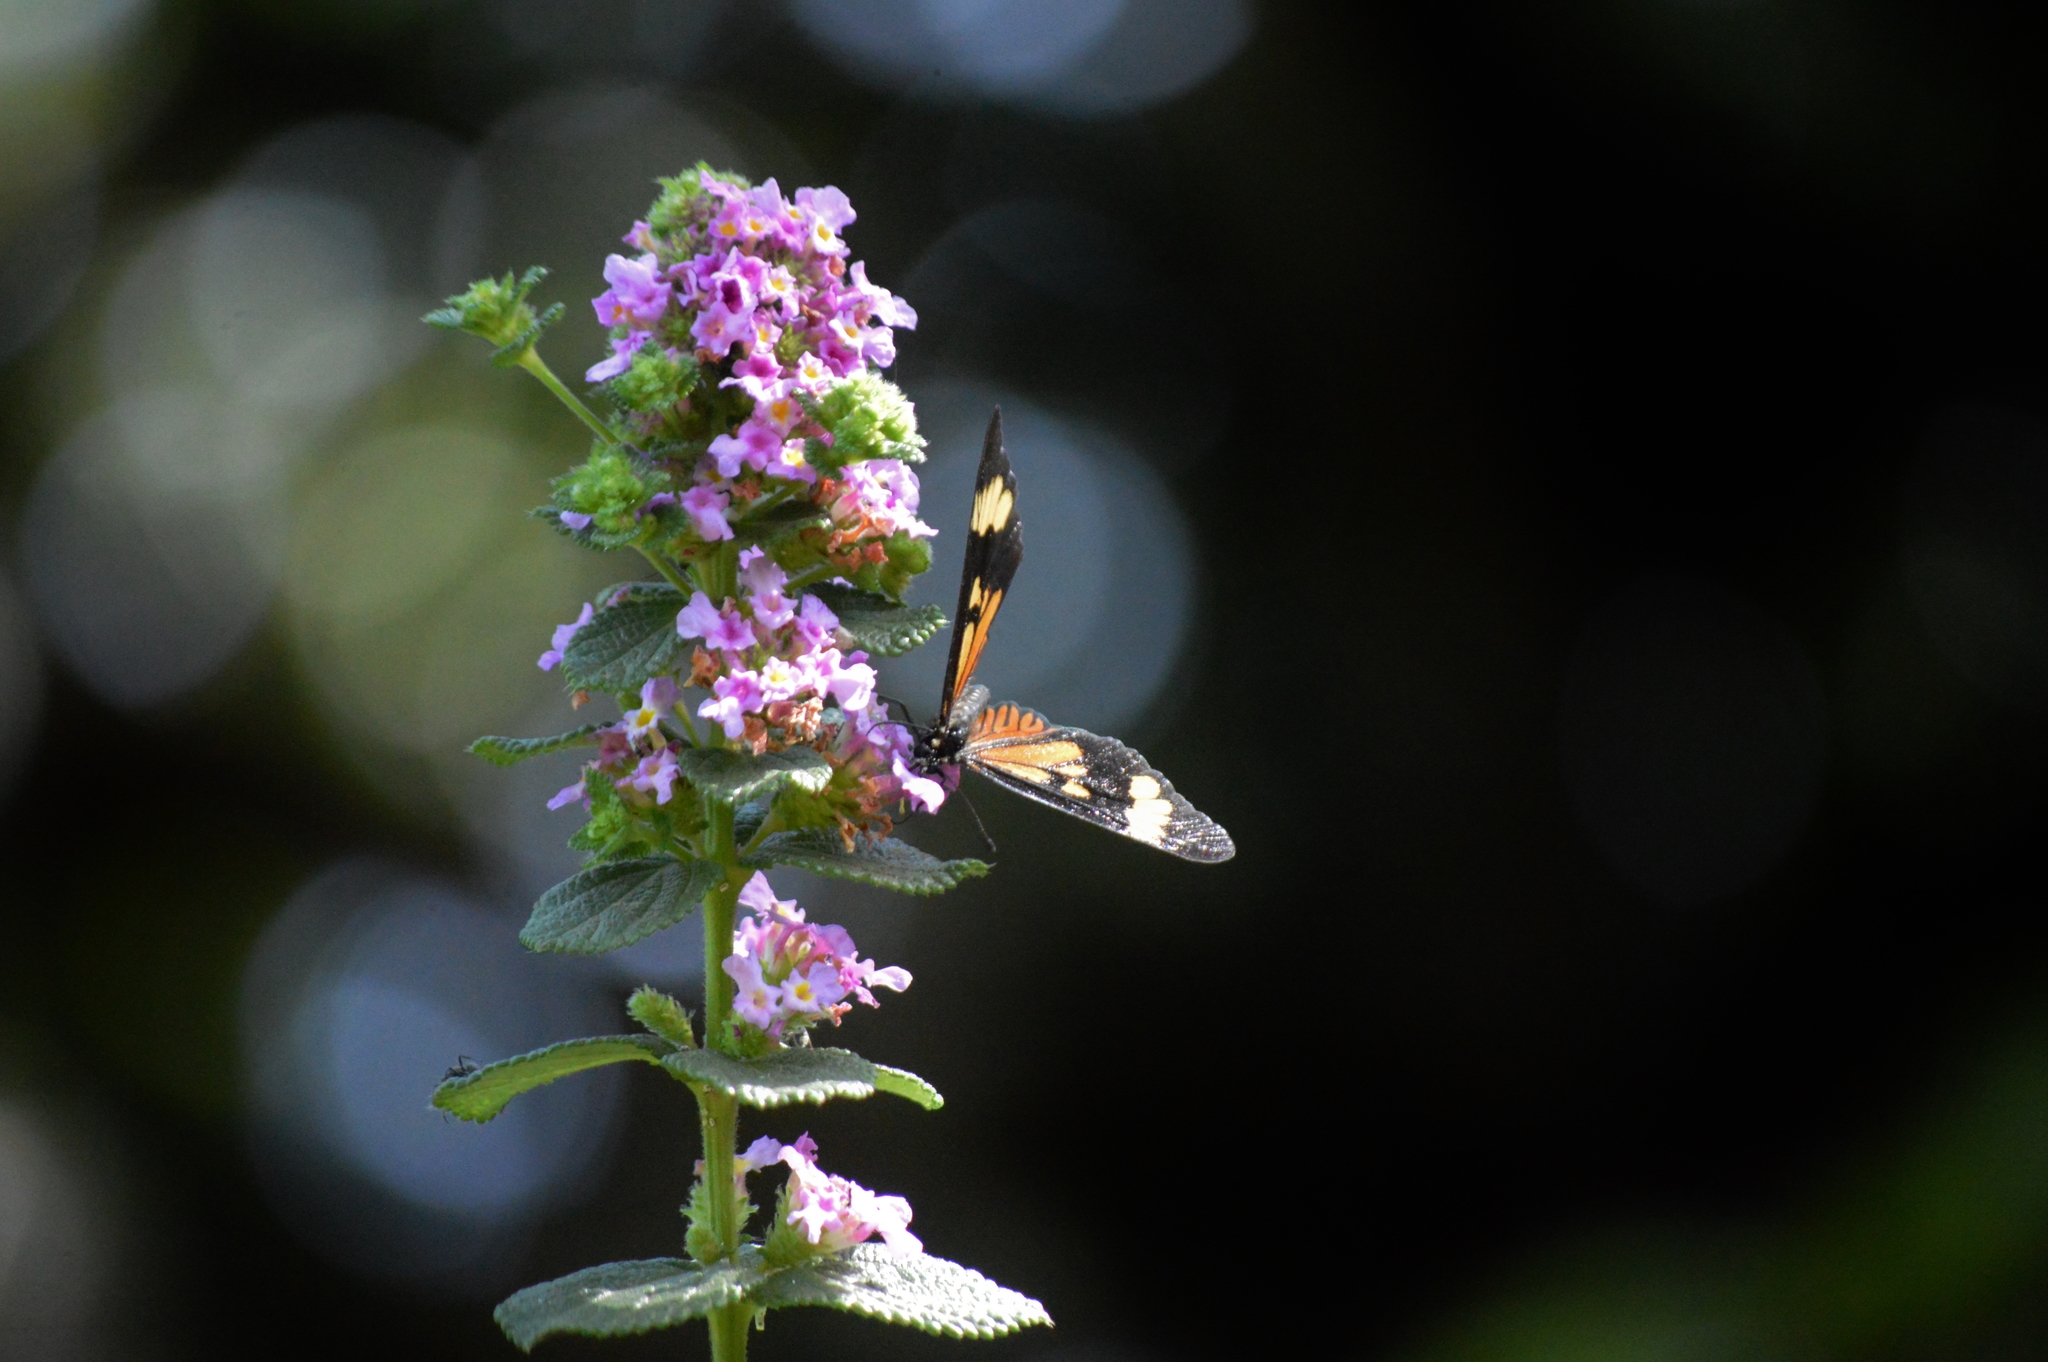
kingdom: Animalia
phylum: Arthropoda
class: Insecta
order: Lepidoptera
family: Nymphalidae
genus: Actinote
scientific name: Actinote pellenea
